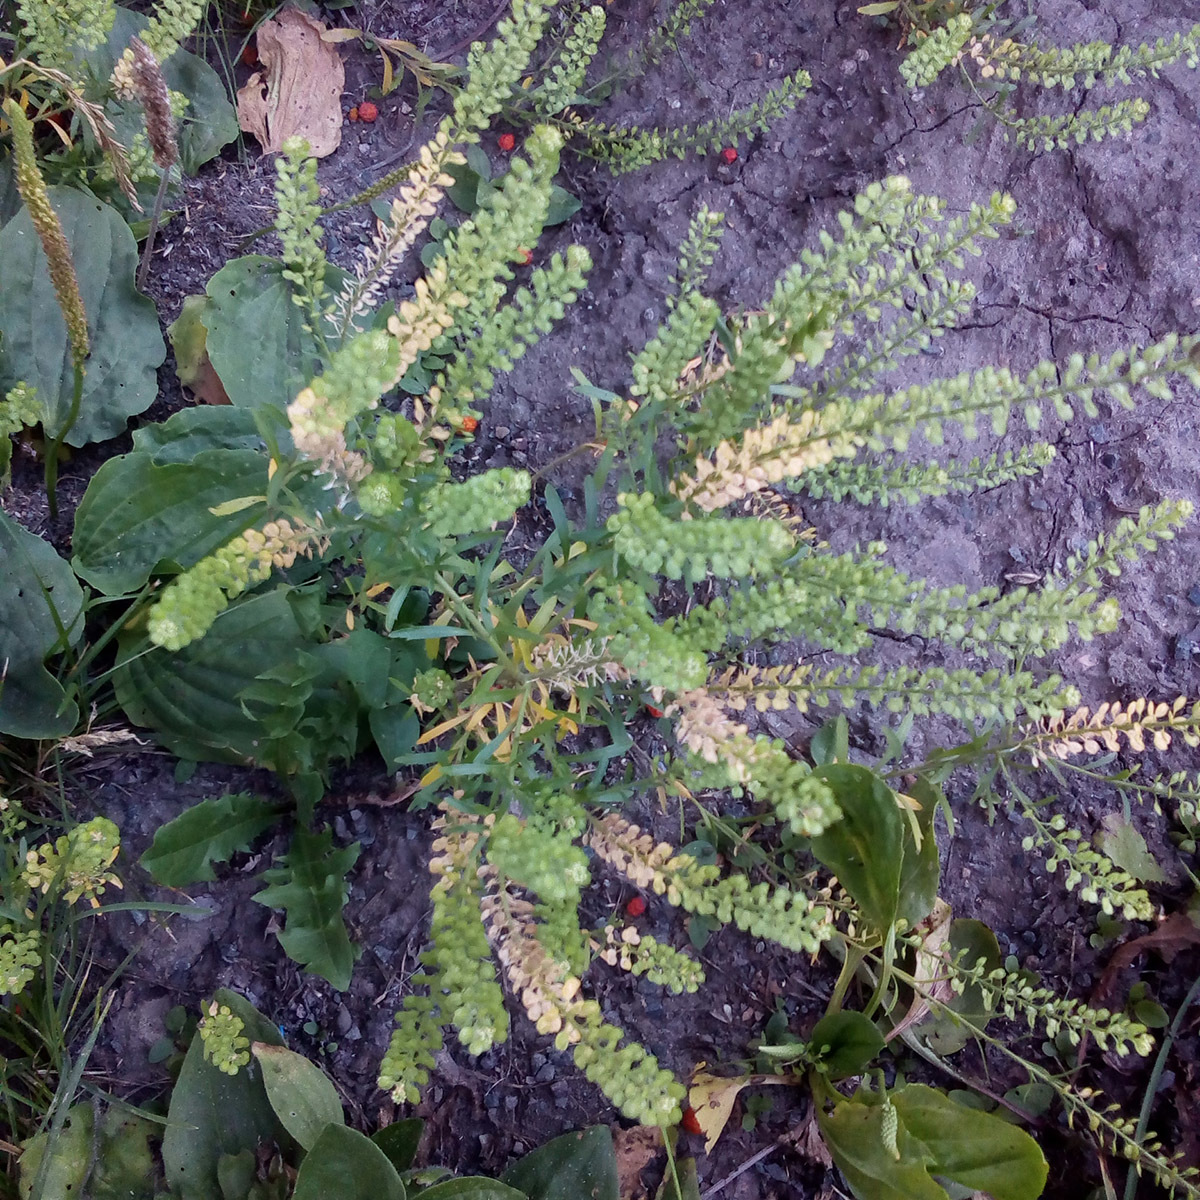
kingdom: Plantae
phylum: Tracheophyta
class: Magnoliopsida
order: Brassicales
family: Brassicaceae
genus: Lepidium
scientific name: Lepidium densiflorum
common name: Miner's pepperwort
